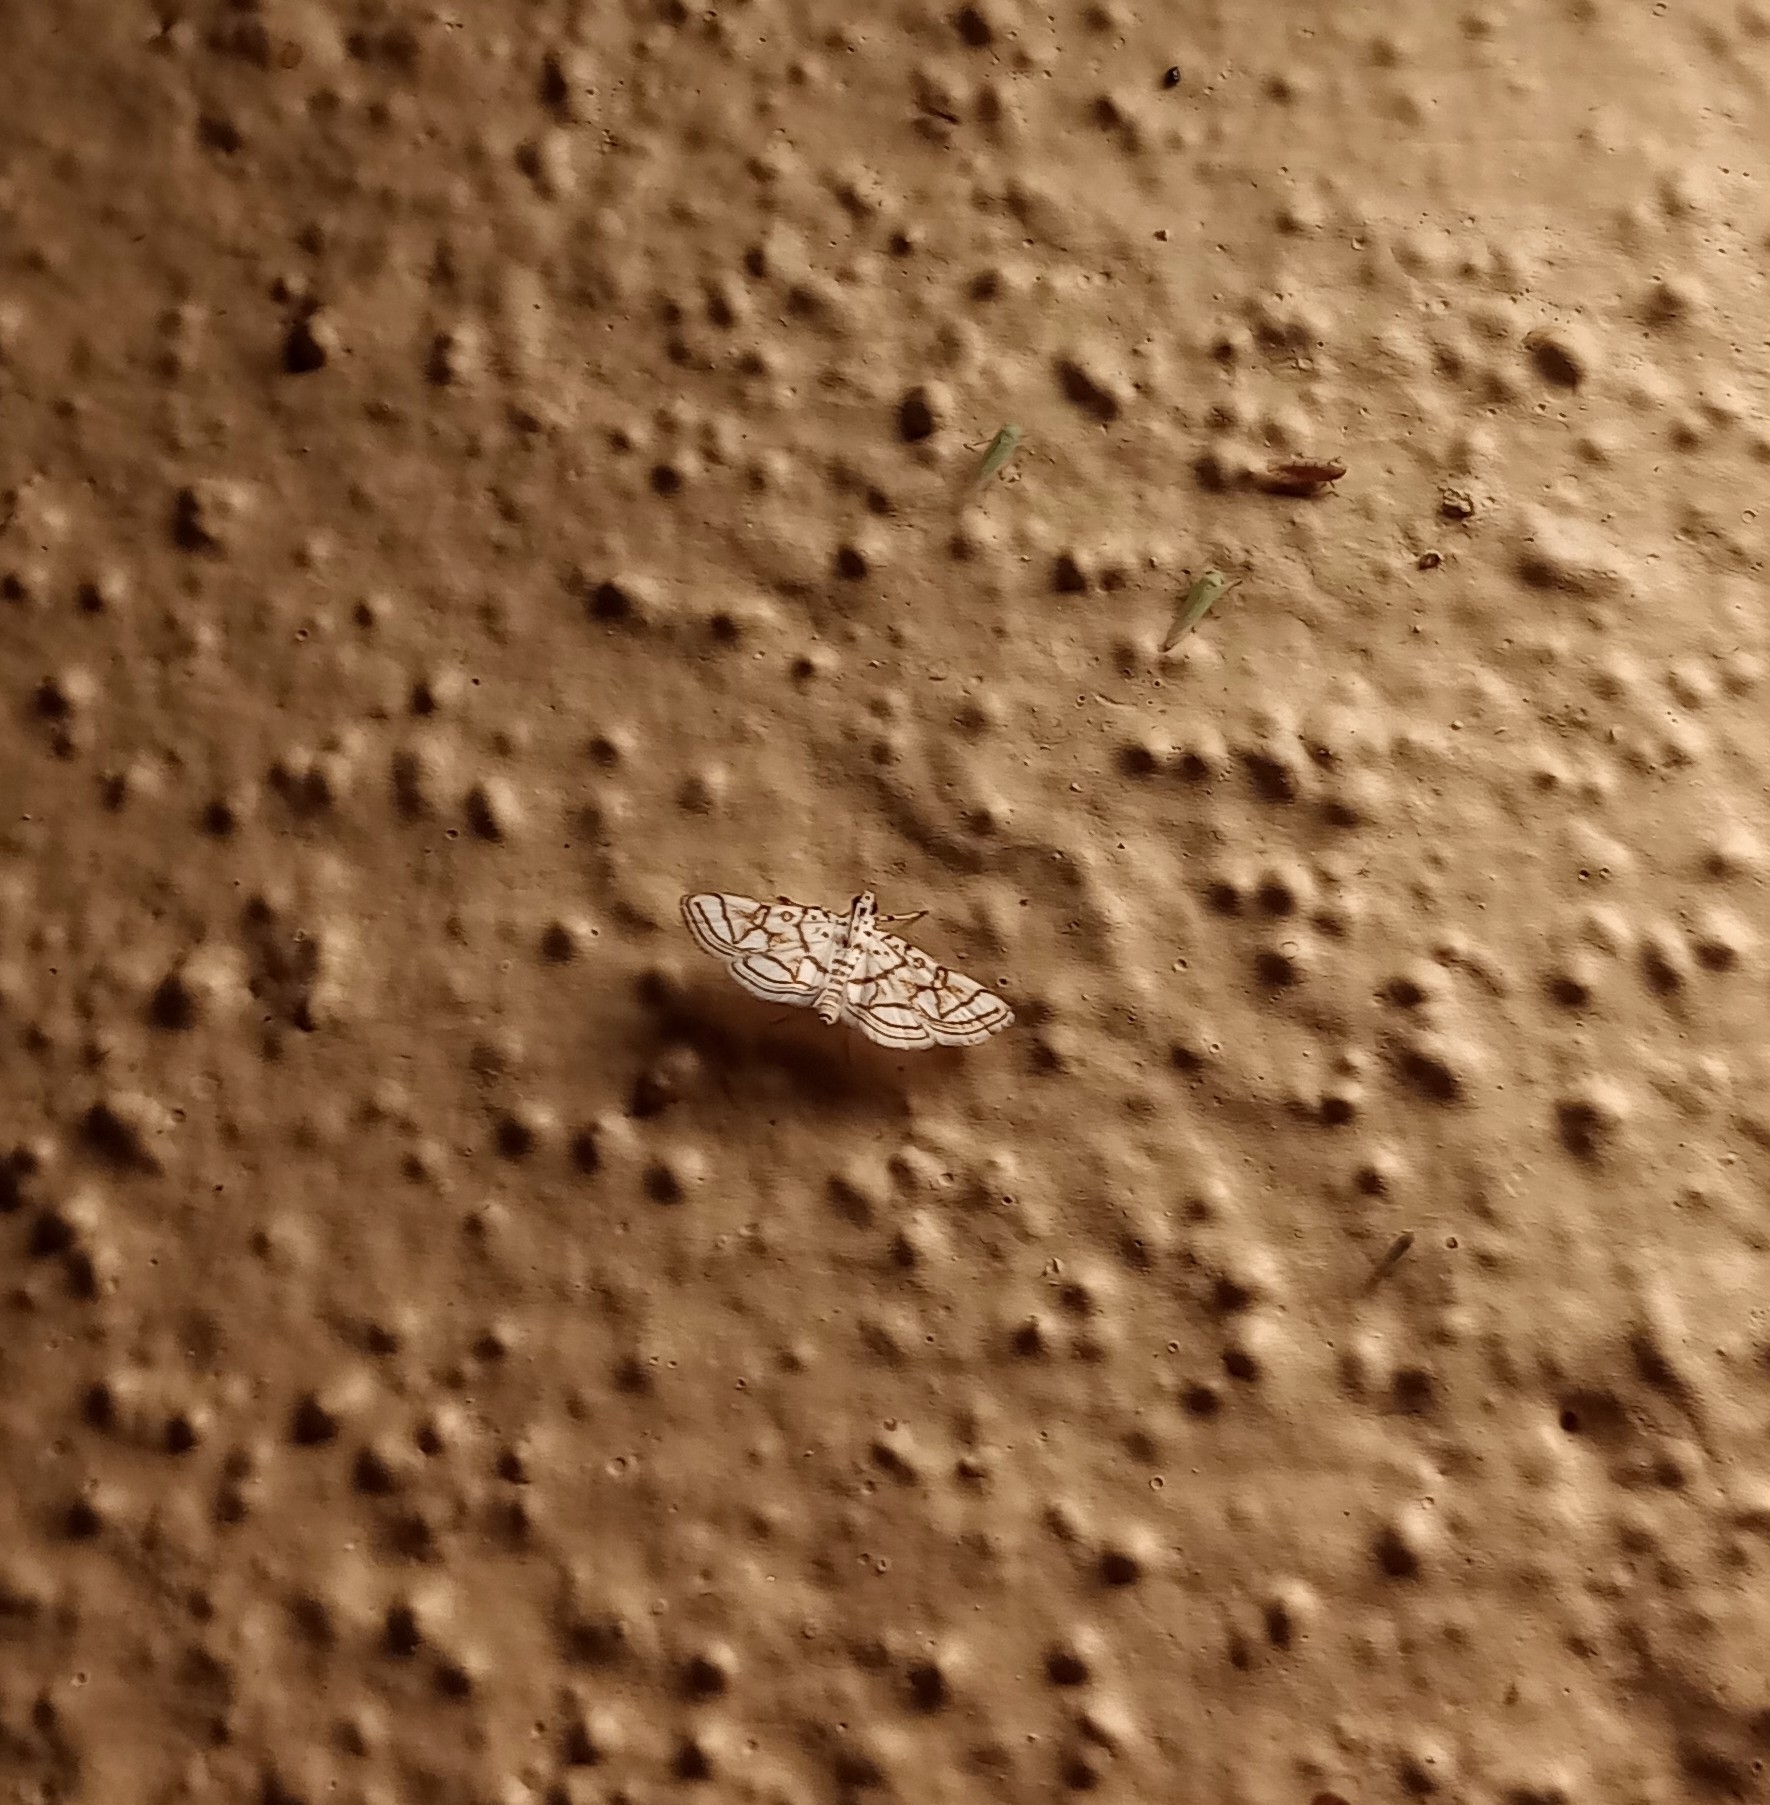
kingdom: Animalia
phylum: Arthropoda
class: Insecta
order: Lepidoptera
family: Crambidae
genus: Elophila
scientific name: Elophila
